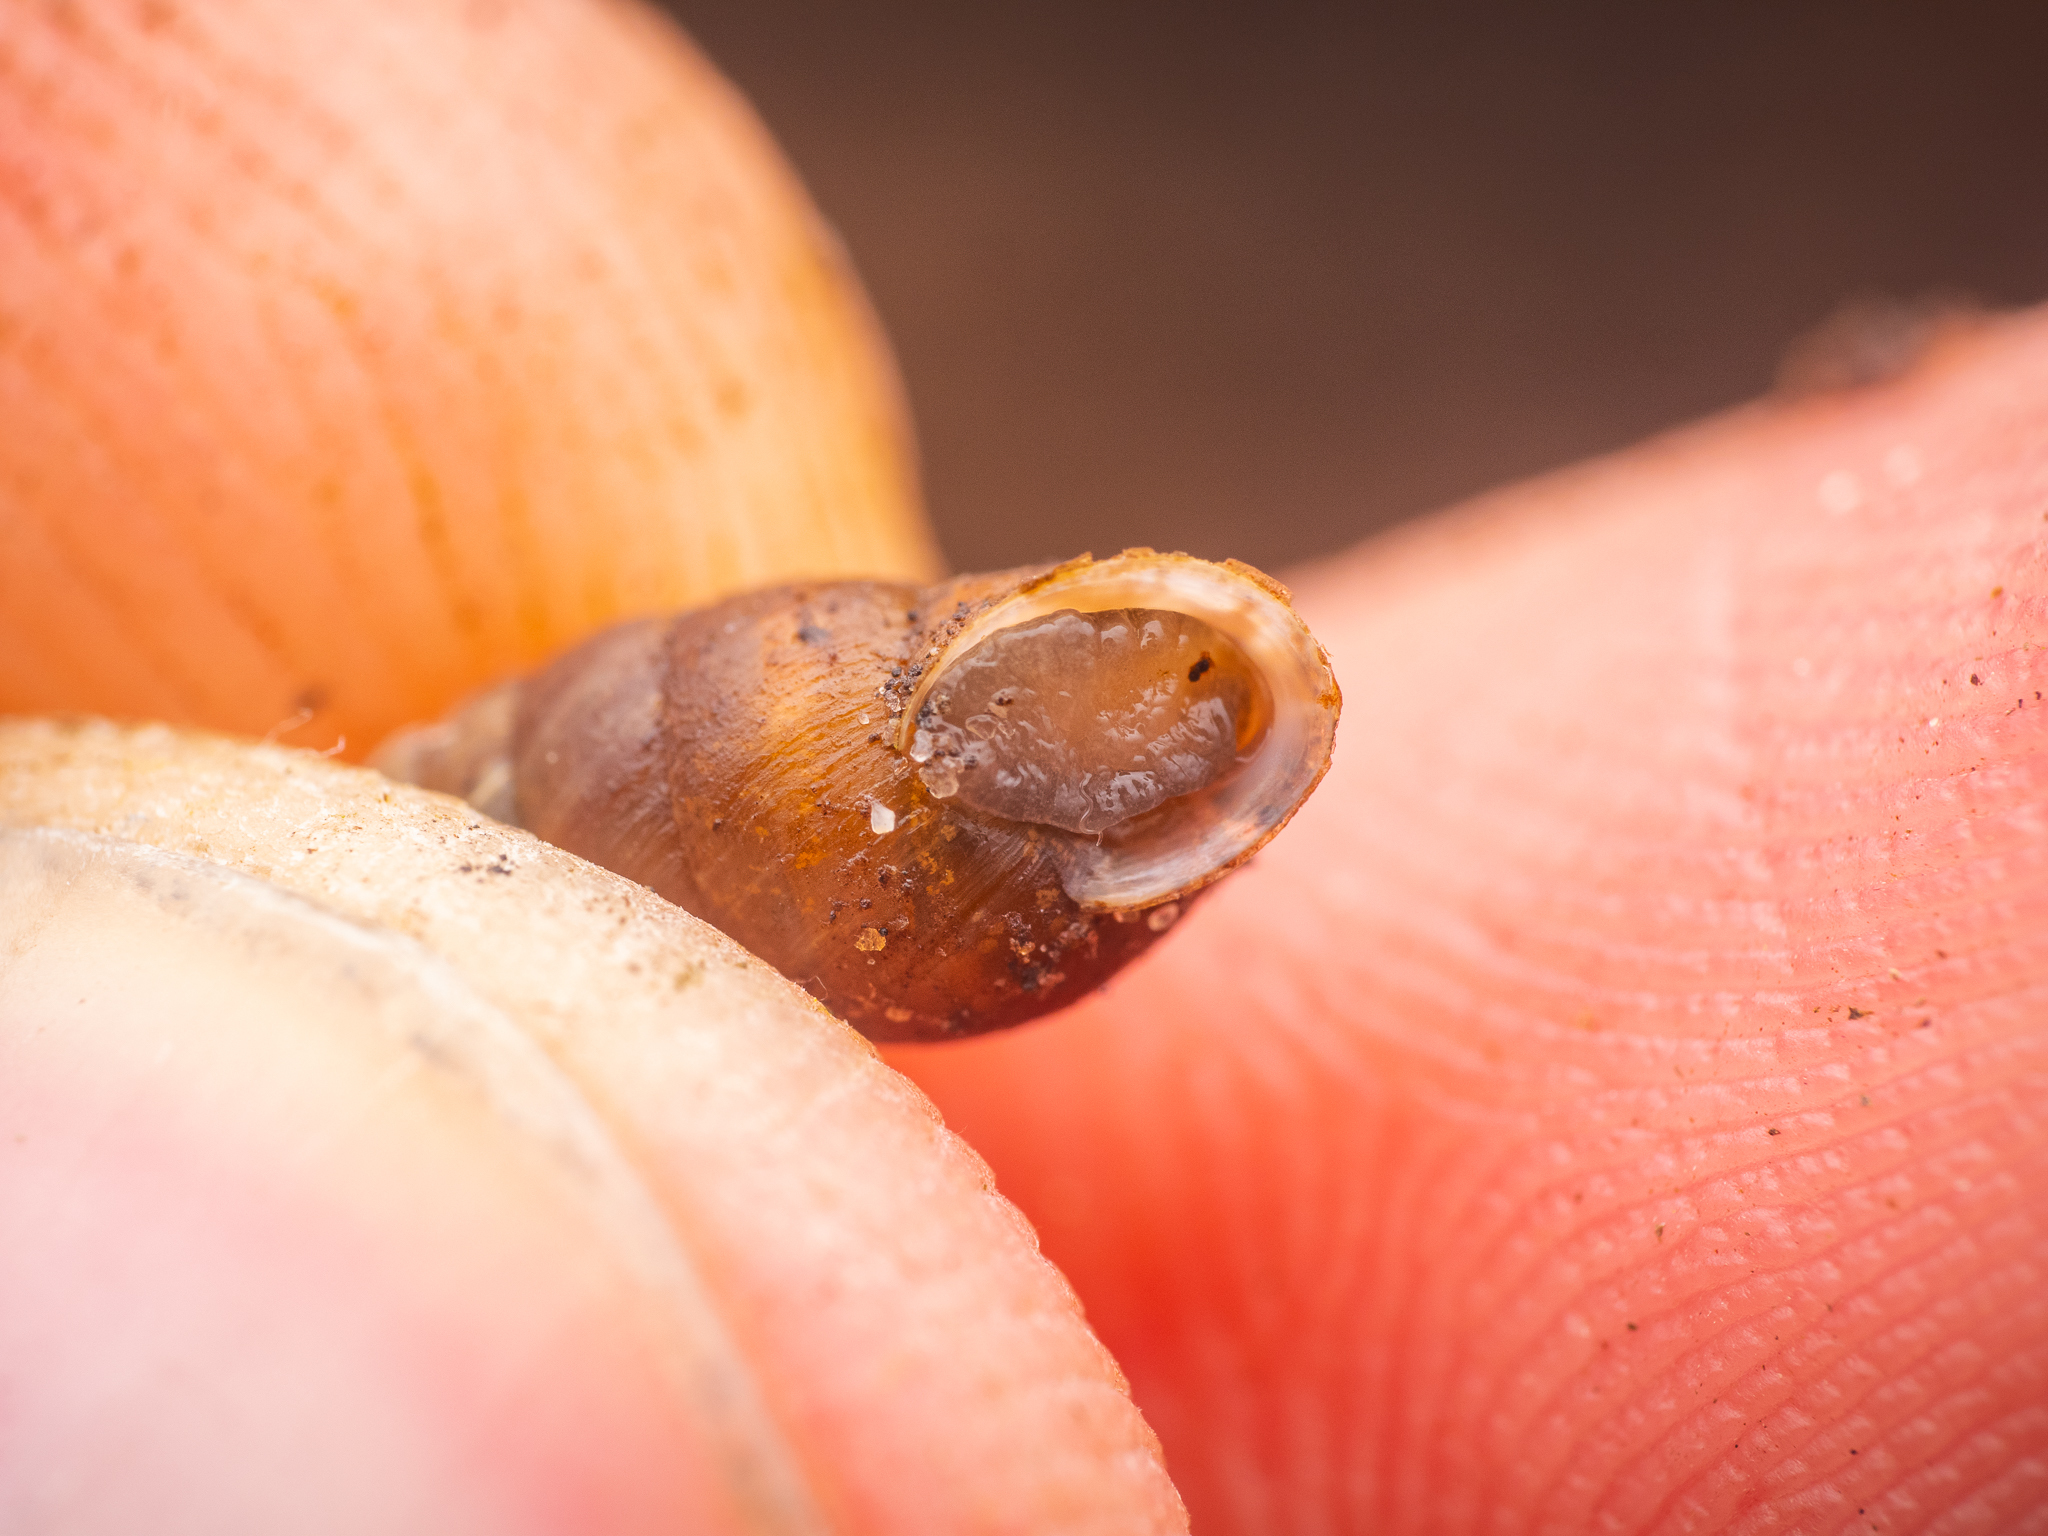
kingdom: Animalia
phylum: Mollusca
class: Gastropoda
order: Stylommatophora
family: Enidae
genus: Merdigera
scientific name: Merdigera obscura
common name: Lesser bulin
